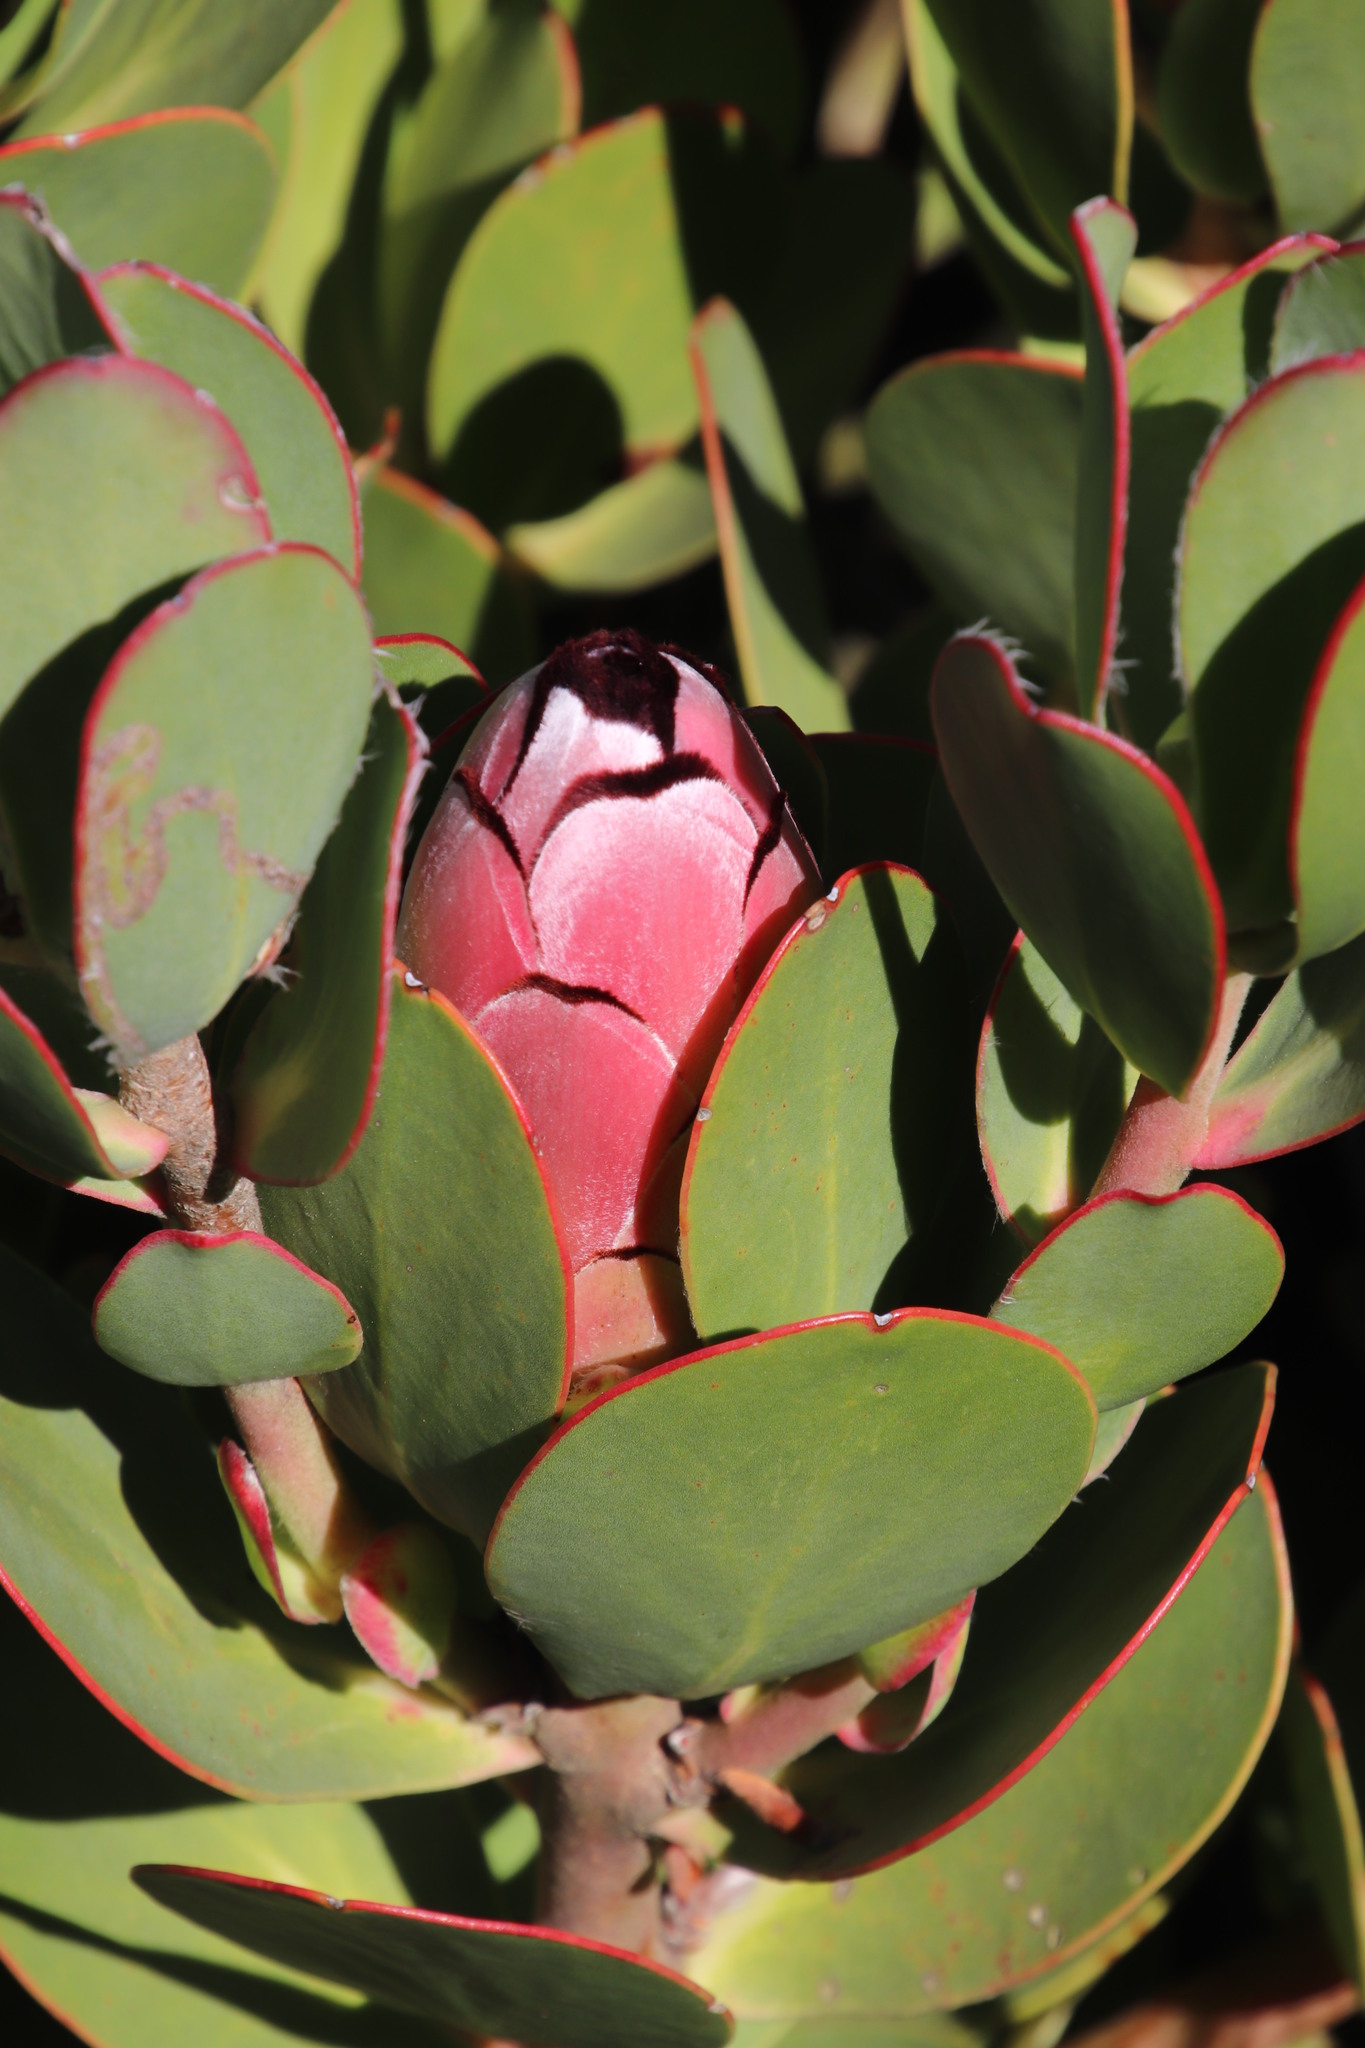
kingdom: Plantae
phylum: Tracheophyta
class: Magnoliopsida
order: Proteales
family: Proteaceae
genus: Protea
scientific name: Protea stokoei
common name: Pink sugarbush
